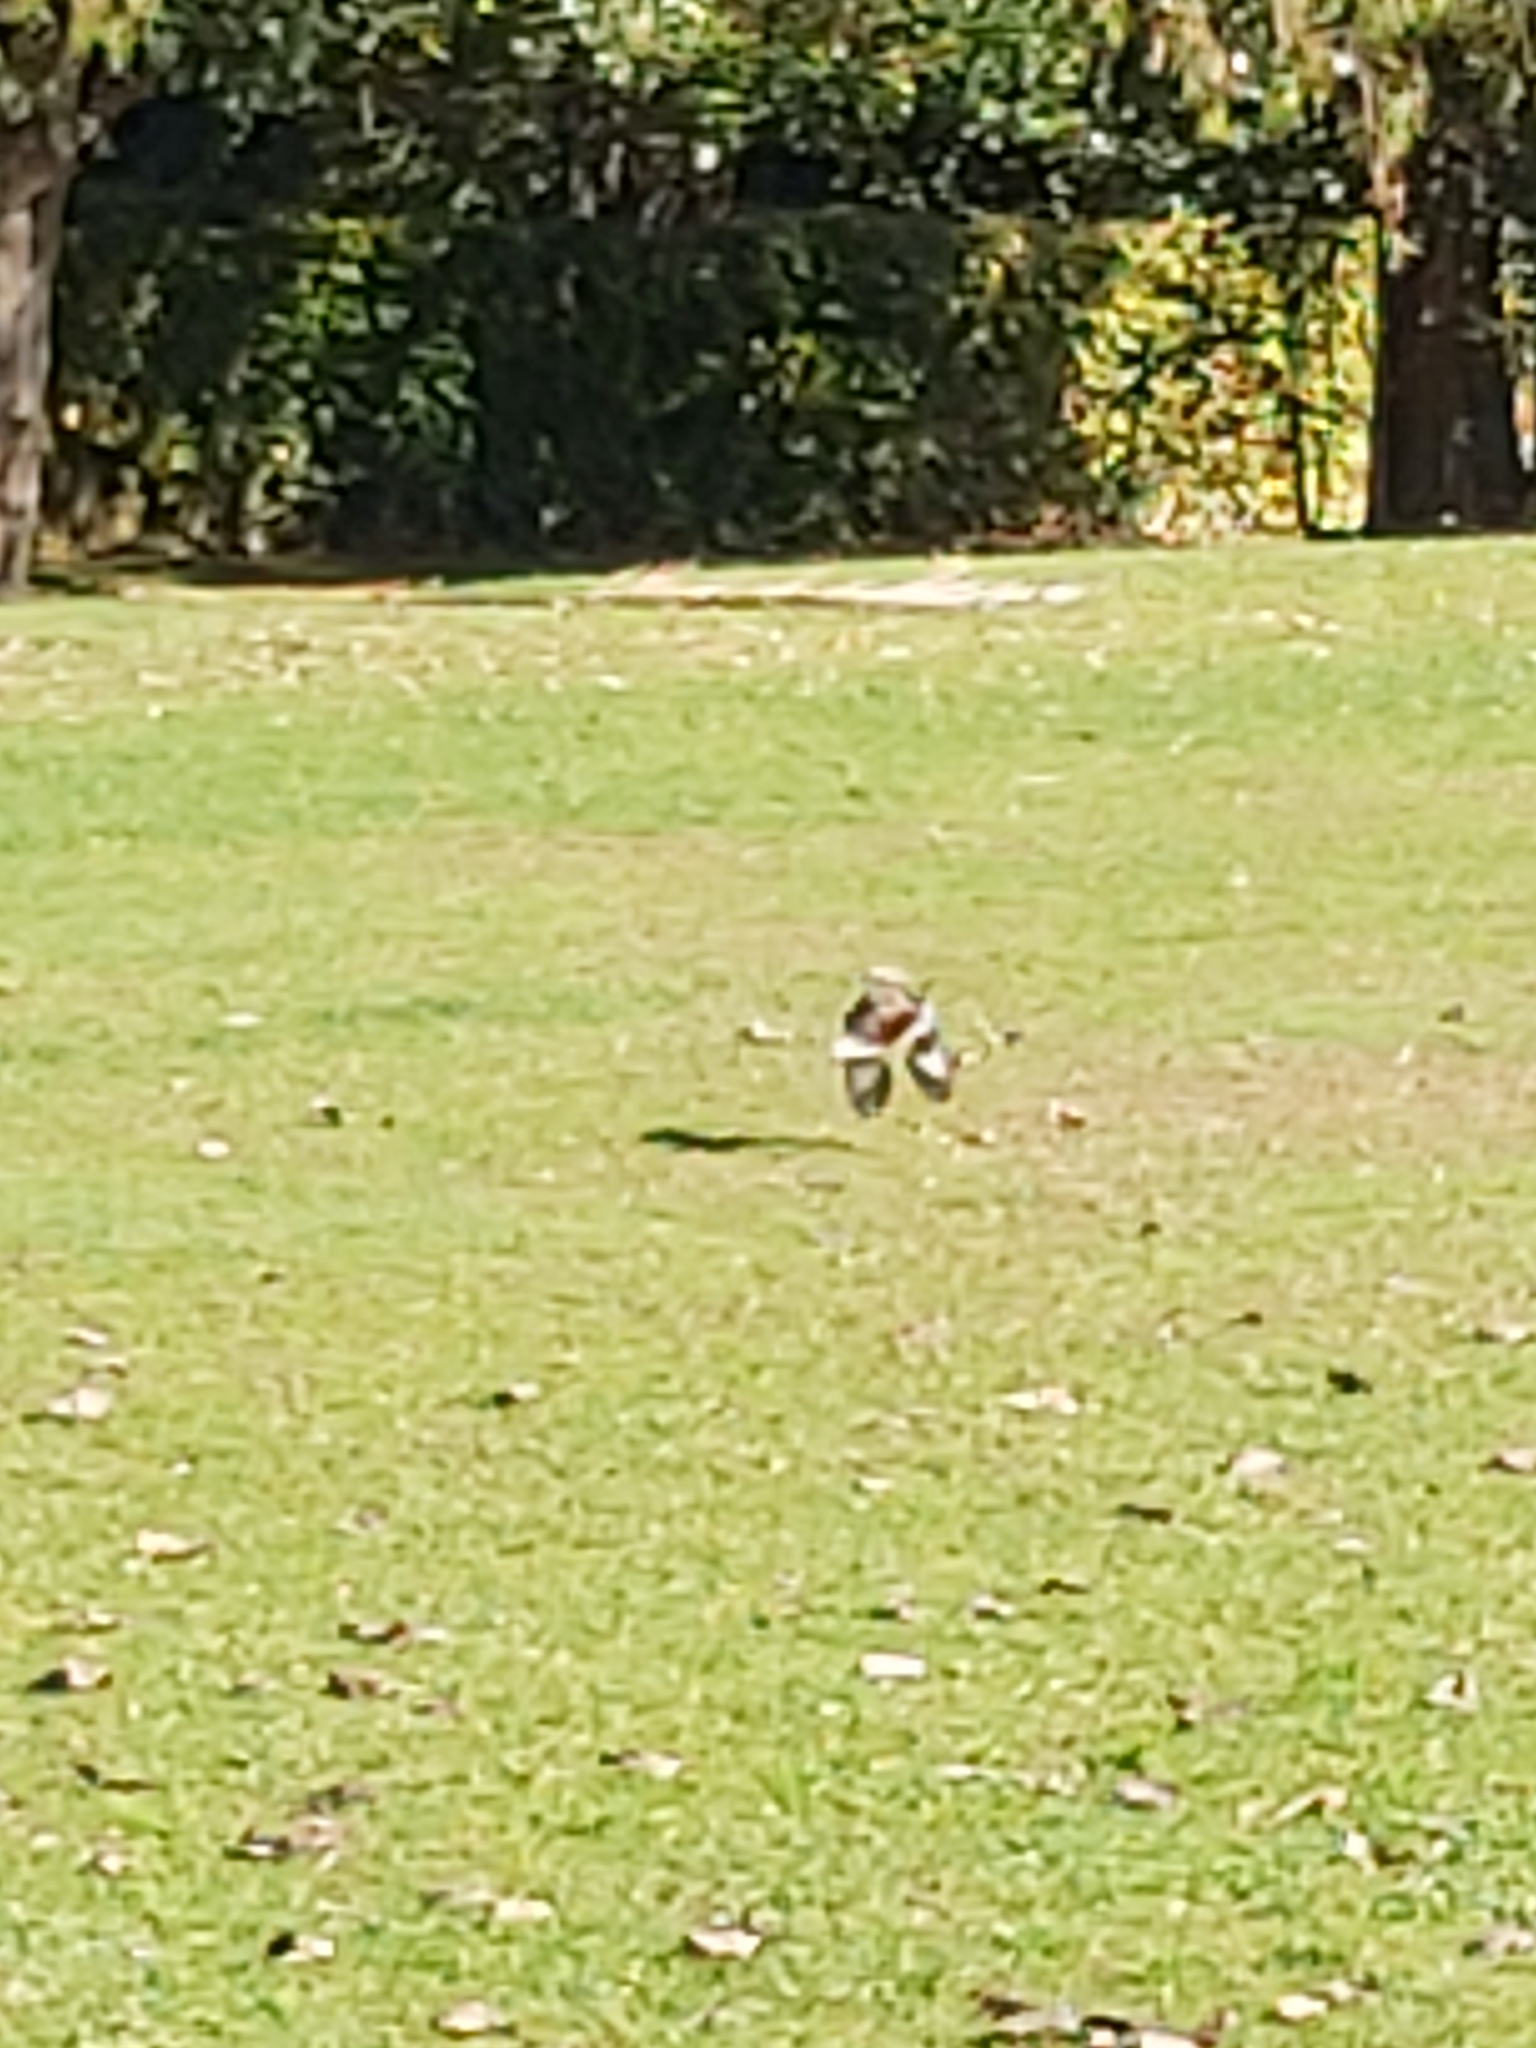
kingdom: Animalia
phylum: Chordata
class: Aves
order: Coraciiformes
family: Alcedinidae
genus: Dacelo
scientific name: Dacelo novaeguineae
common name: Laughing kookaburra
